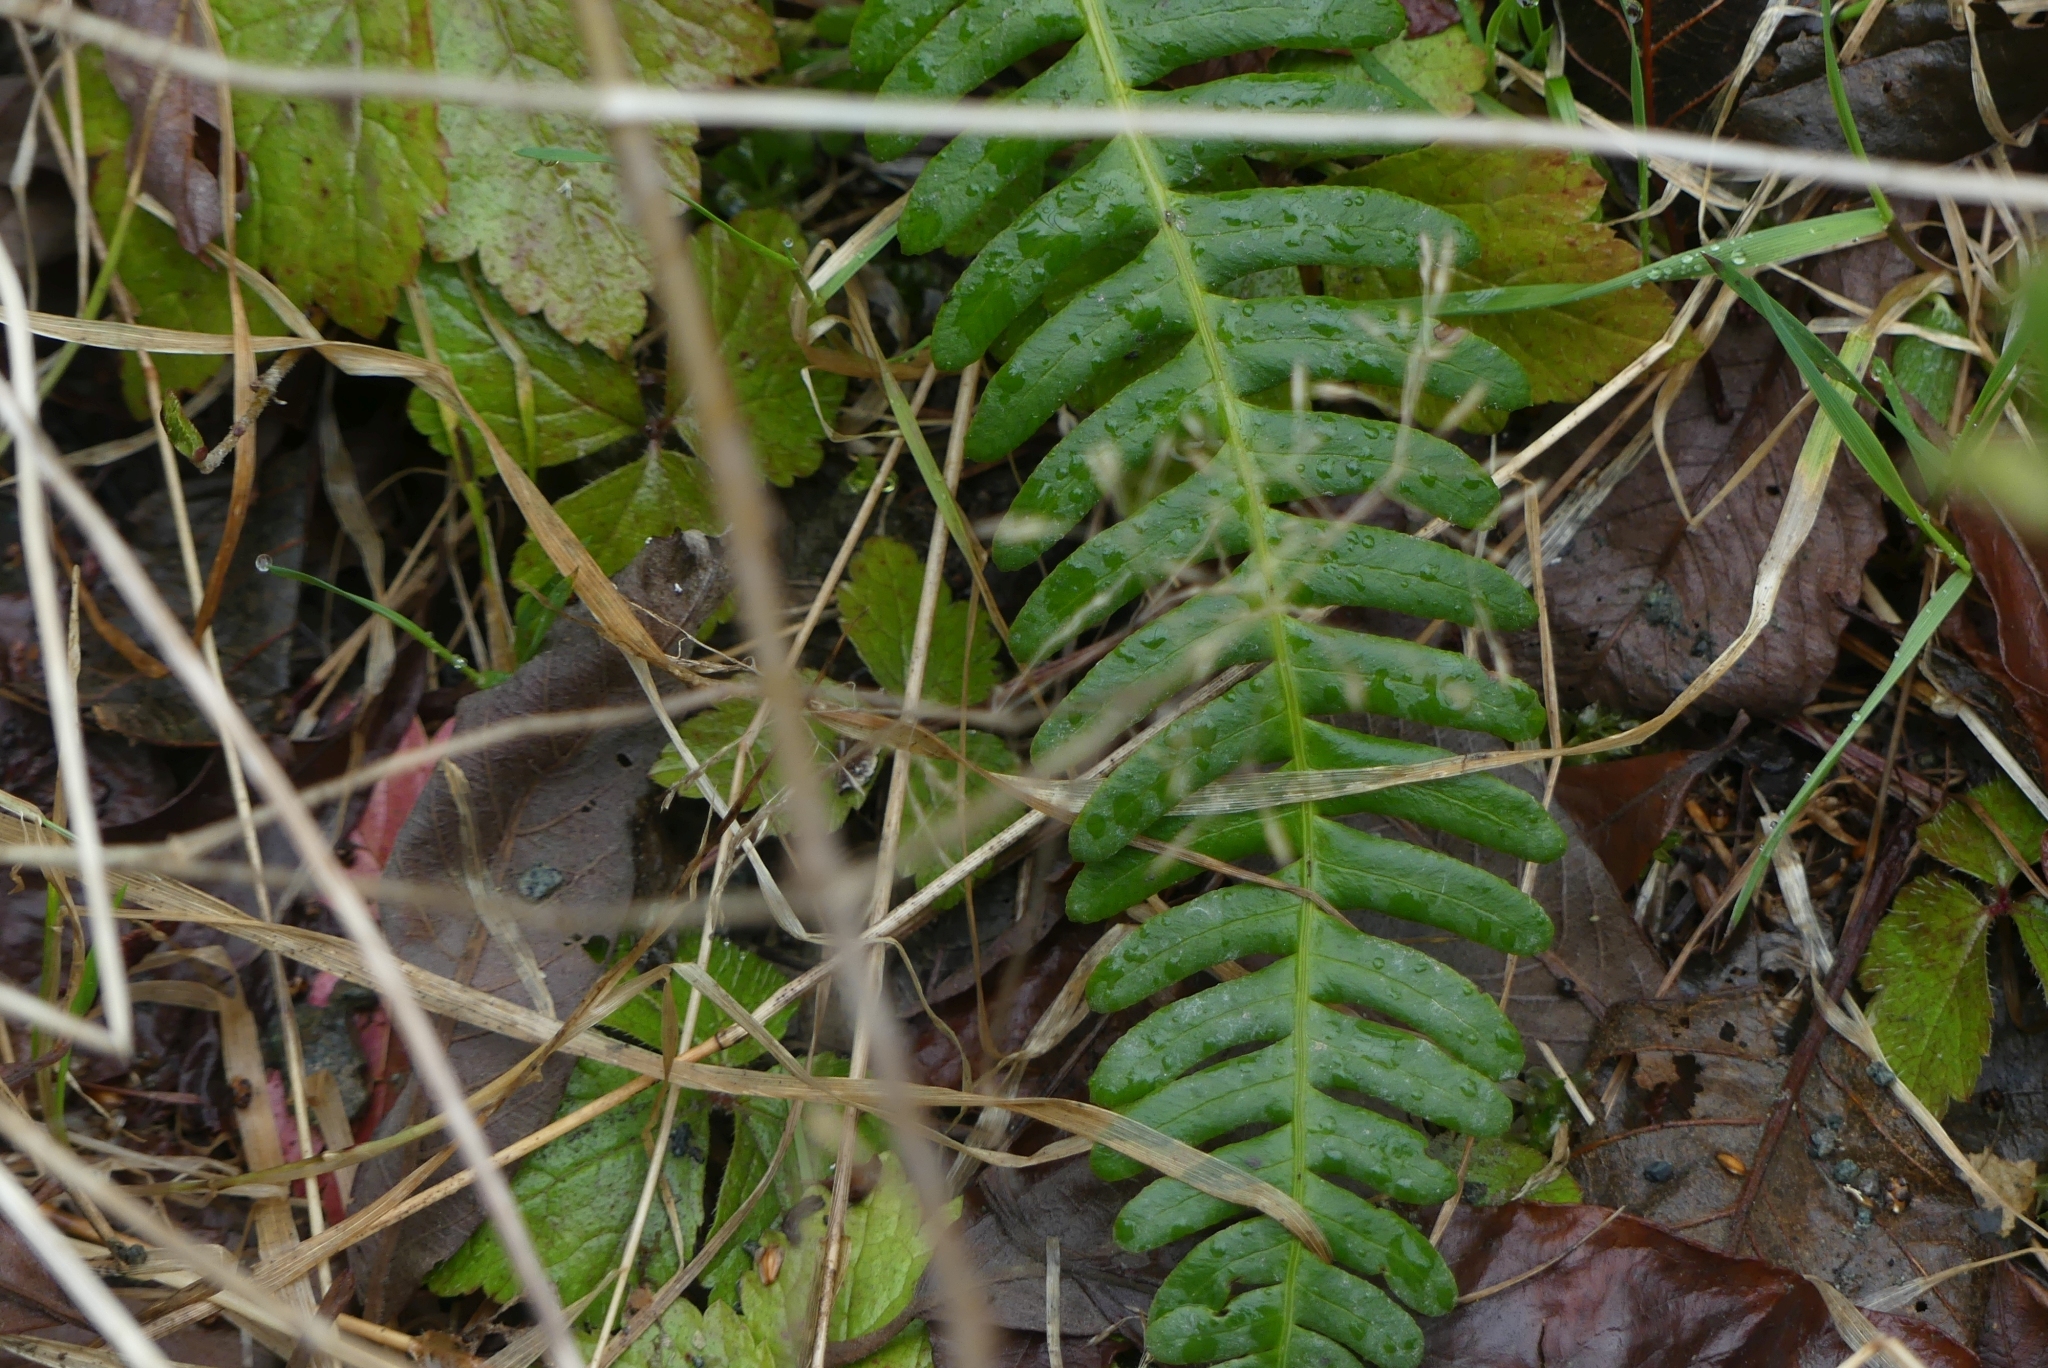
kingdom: Plantae
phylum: Tracheophyta
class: Polypodiopsida
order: Polypodiales
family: Blechnaceae
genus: Struthiopteris
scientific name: Struthiopteris spicant
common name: Deer fern
